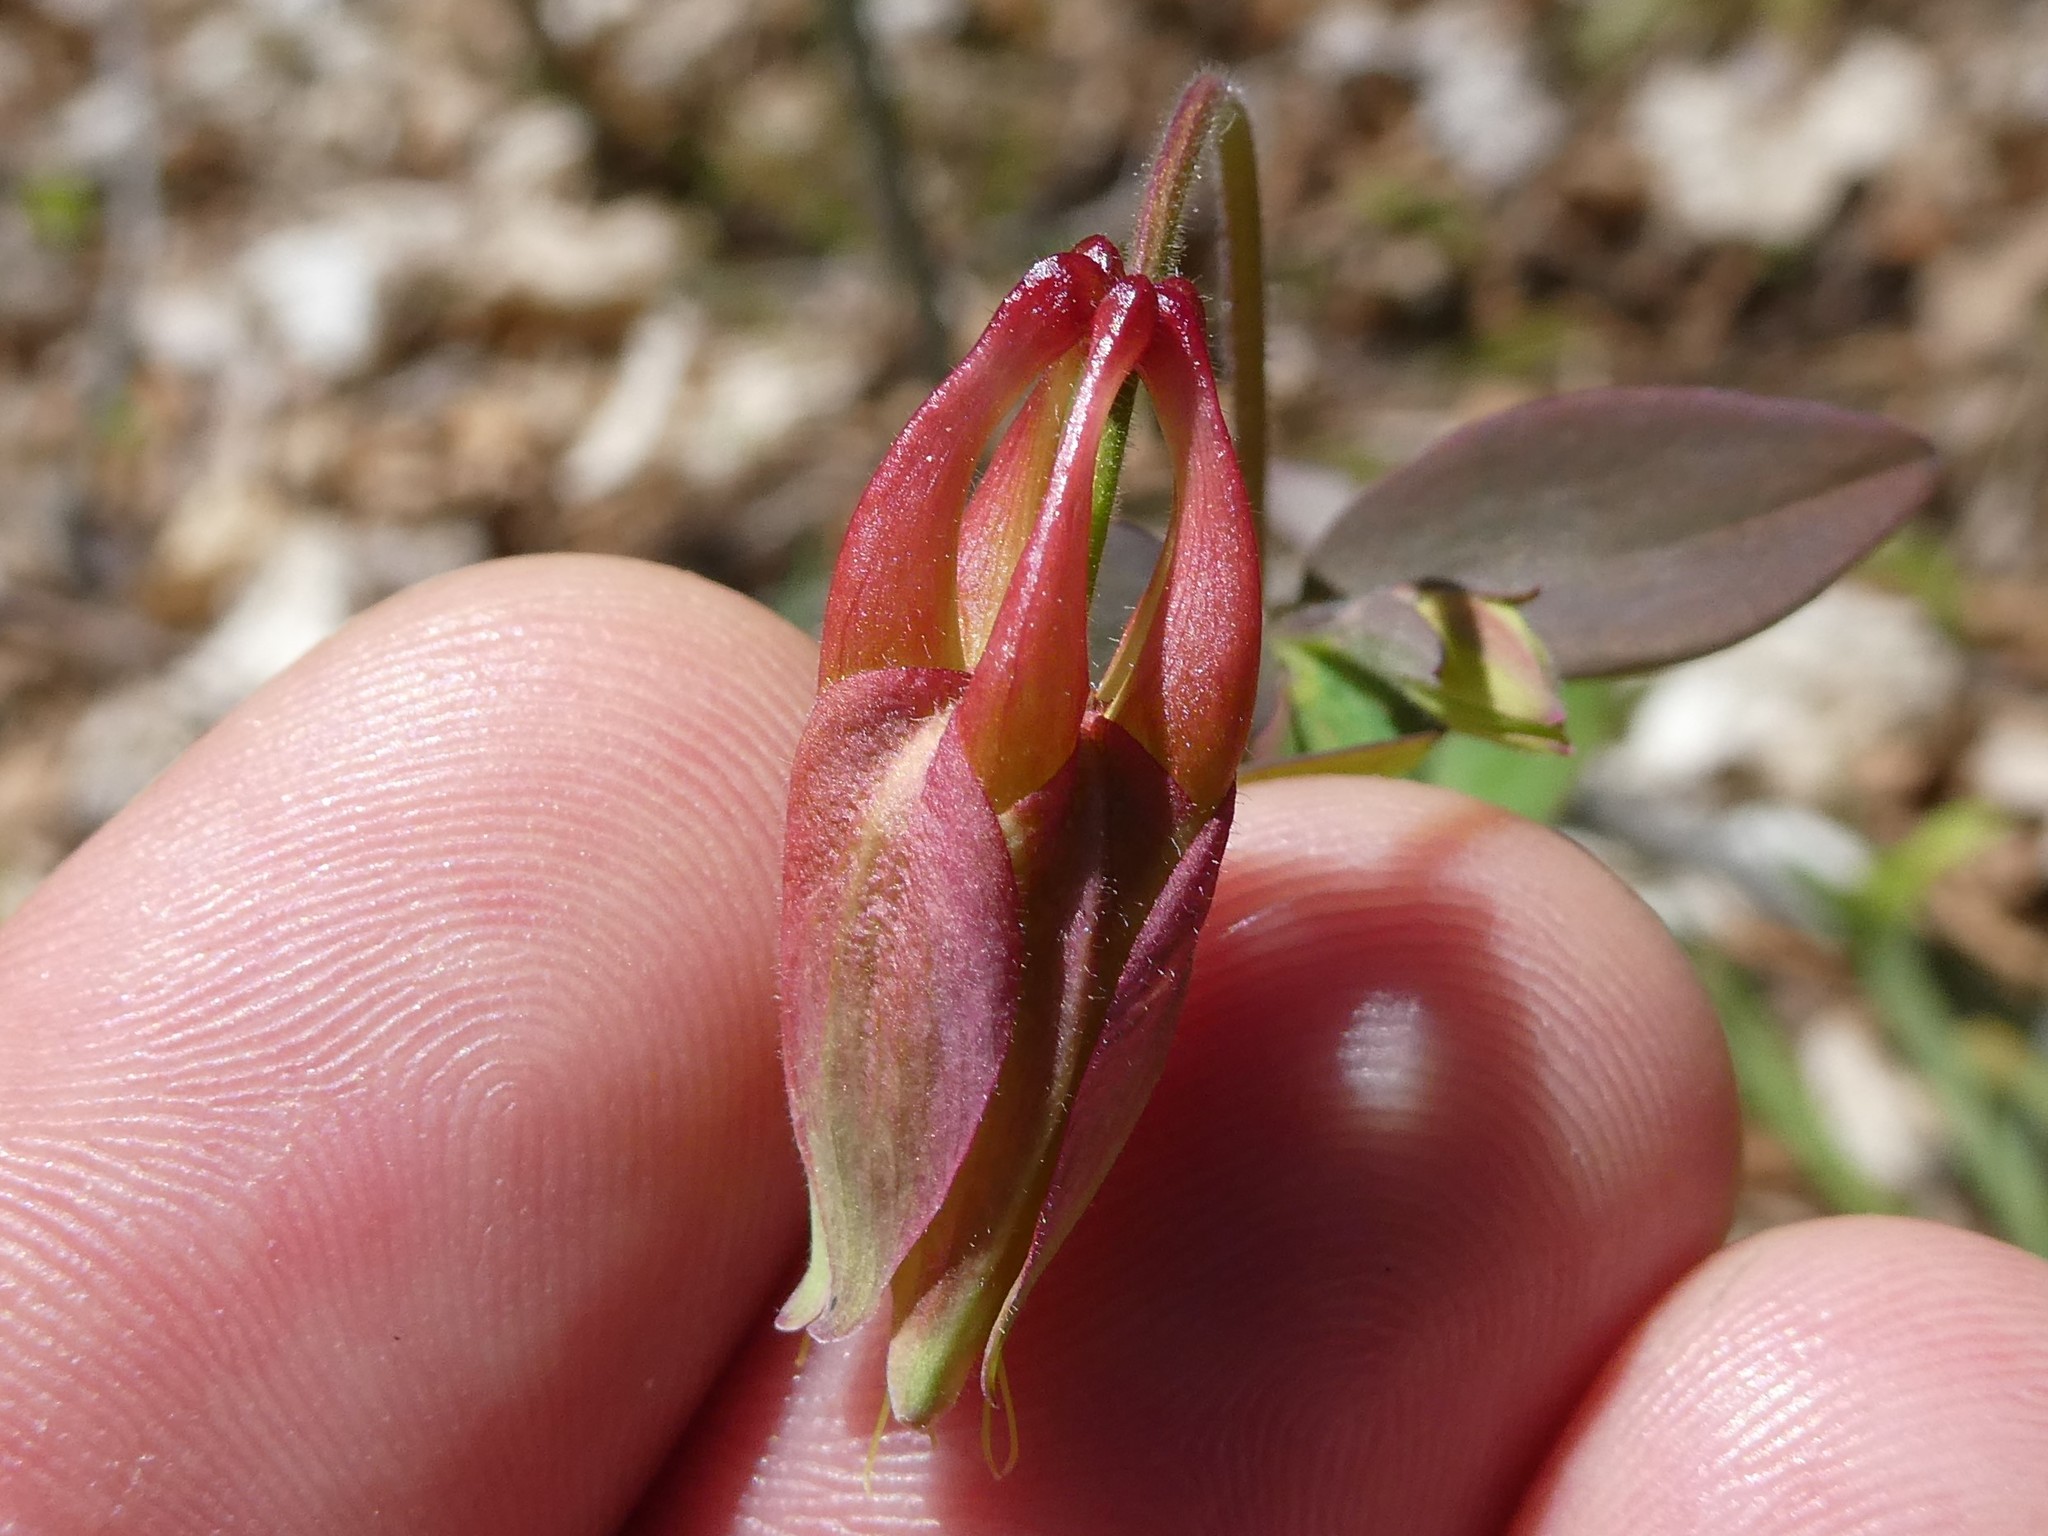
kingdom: Plantae
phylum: Tracheophyta
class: Magnoliopsida
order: Ranunculales
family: Ranunculaceae
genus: Aquilegia
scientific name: Aquilegia canadensis
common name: American columbine
